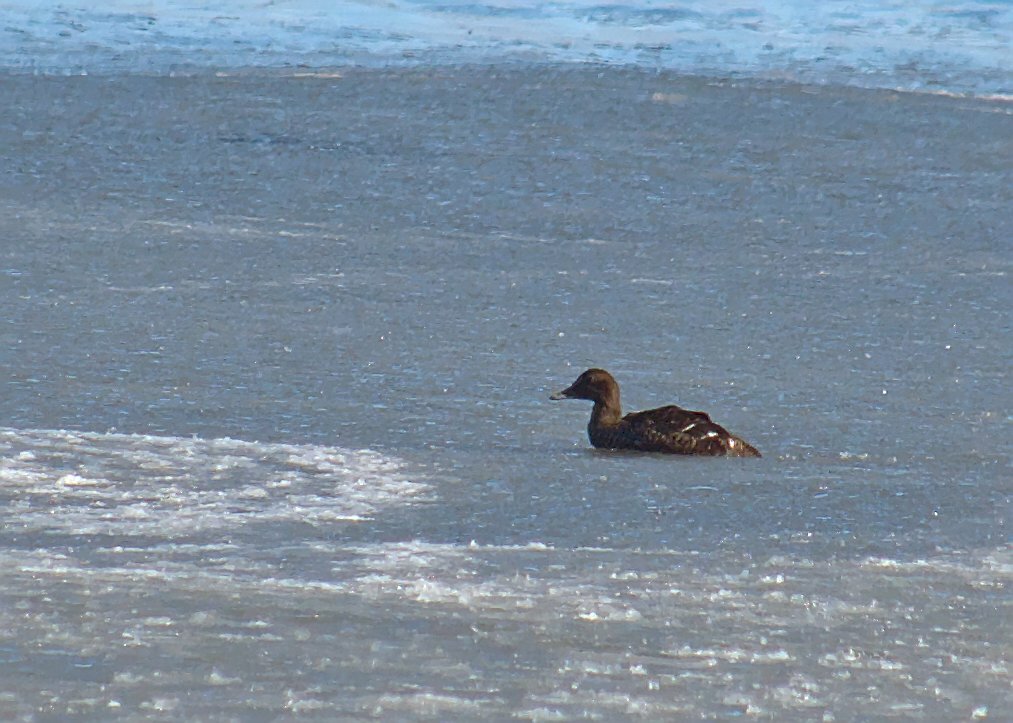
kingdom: Animalia
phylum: Chordata
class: Aves
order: Anseriformes
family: Anatidae
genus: Somateria
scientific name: Somateria mollissima
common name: Common eider
